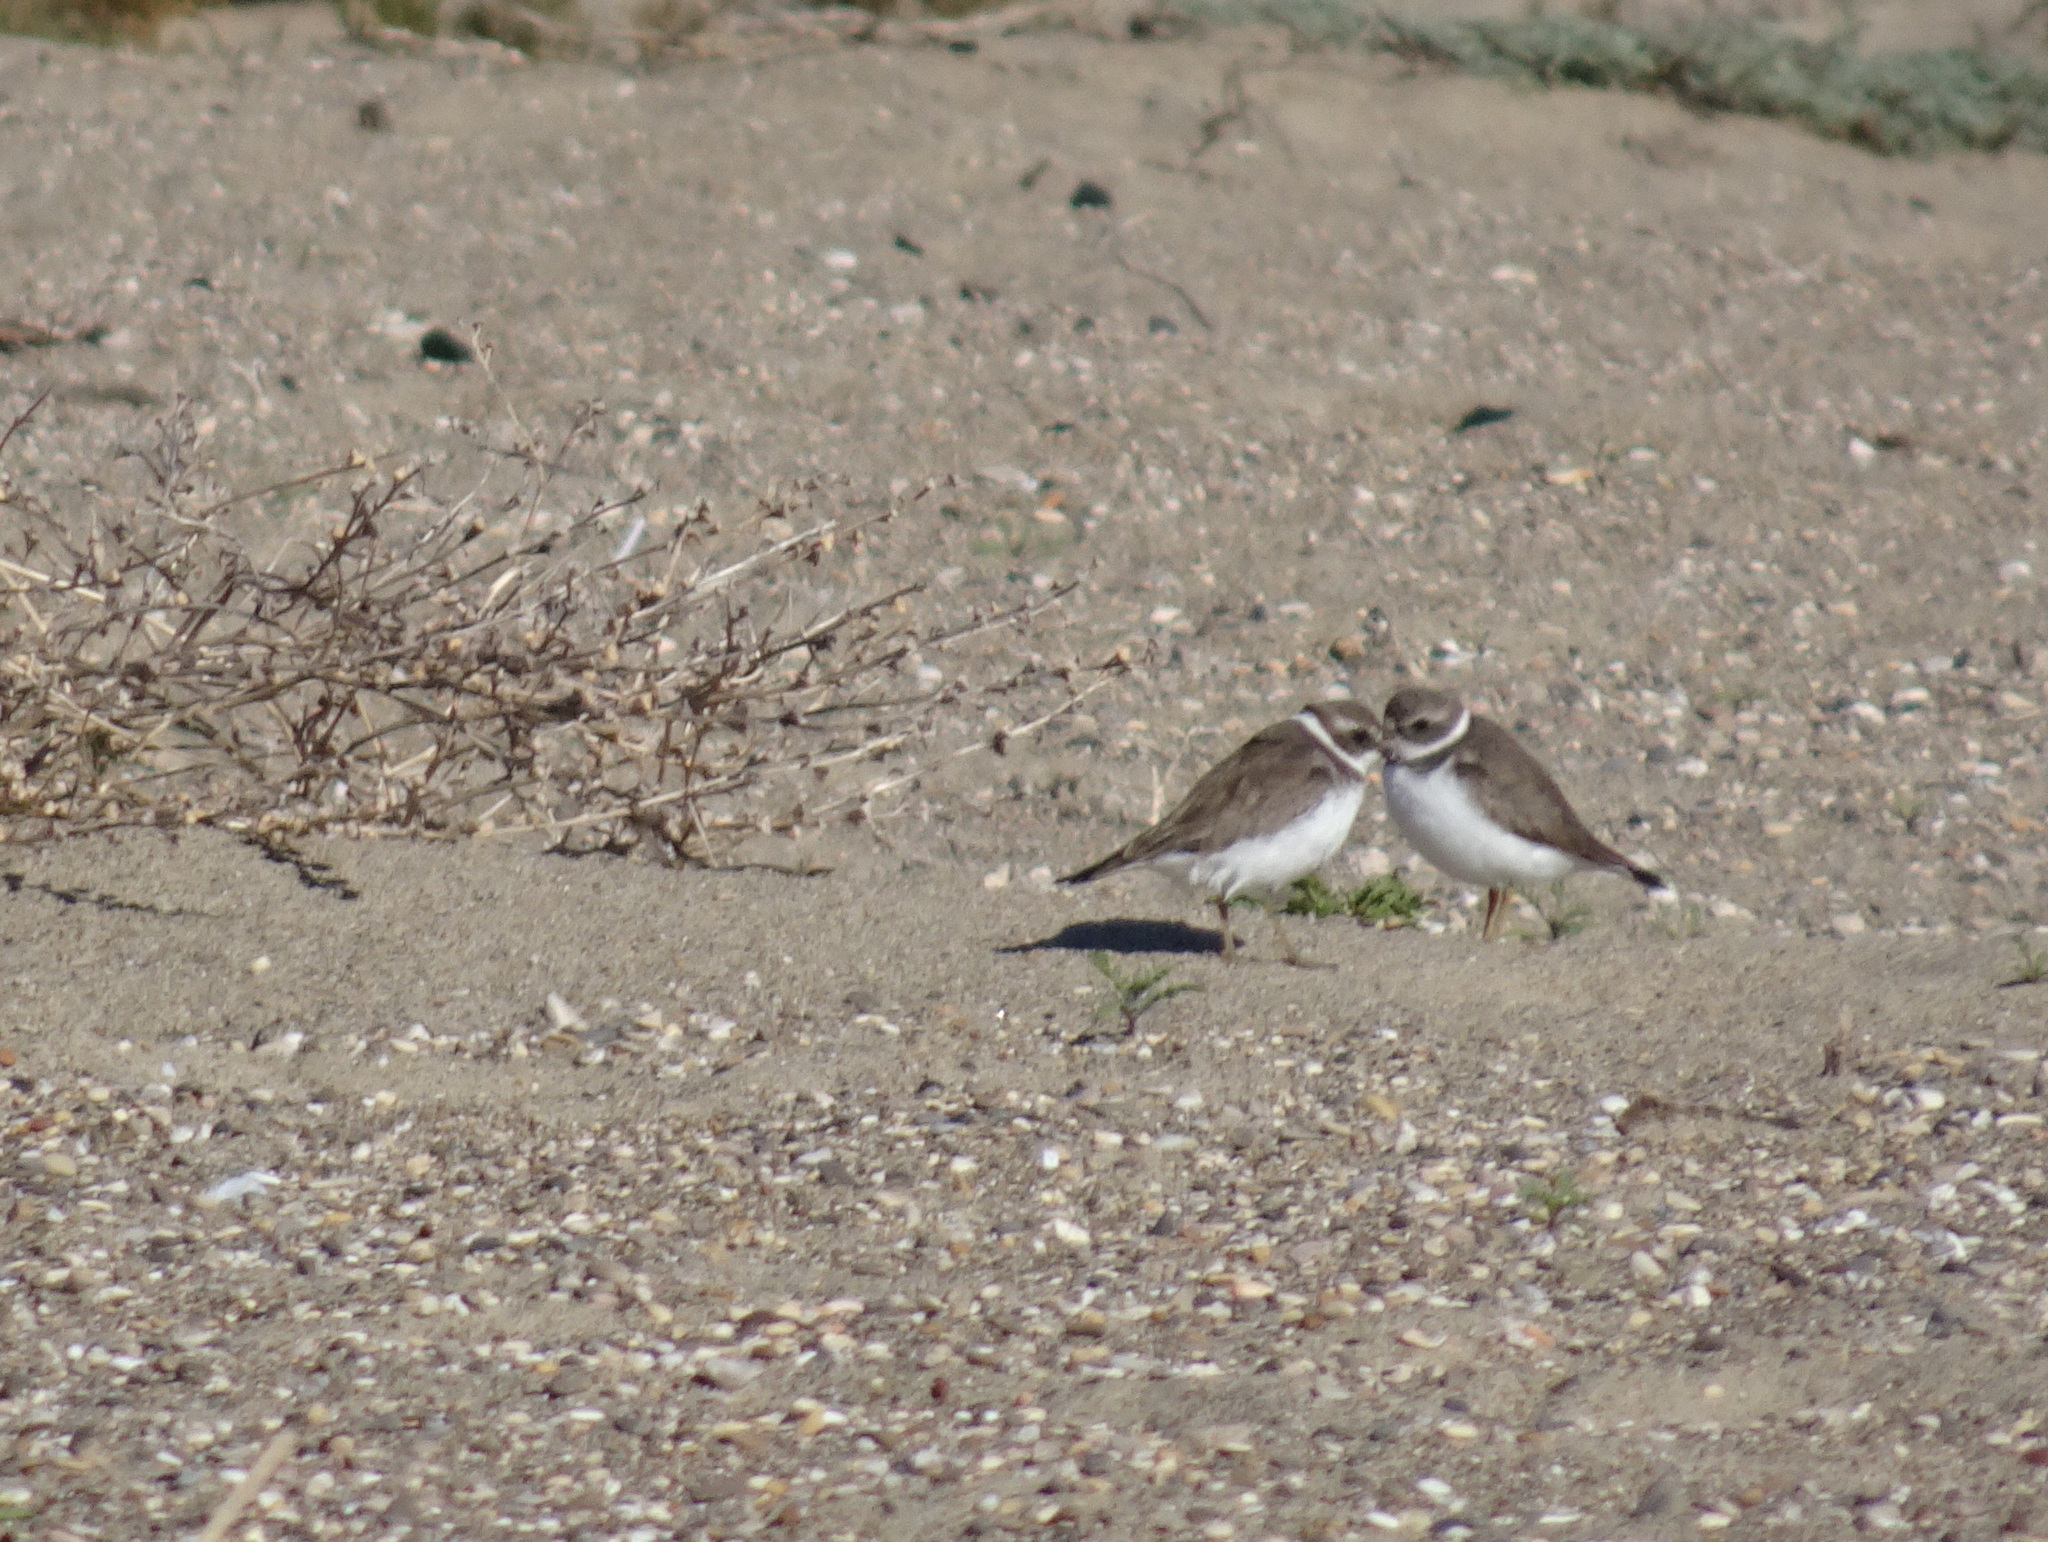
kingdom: Animalia
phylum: Chordata
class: Aves
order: Charadriiformes
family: Charadriidae
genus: Charadrius
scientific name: Charadrius semipalmatus
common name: Semipalmated plover
